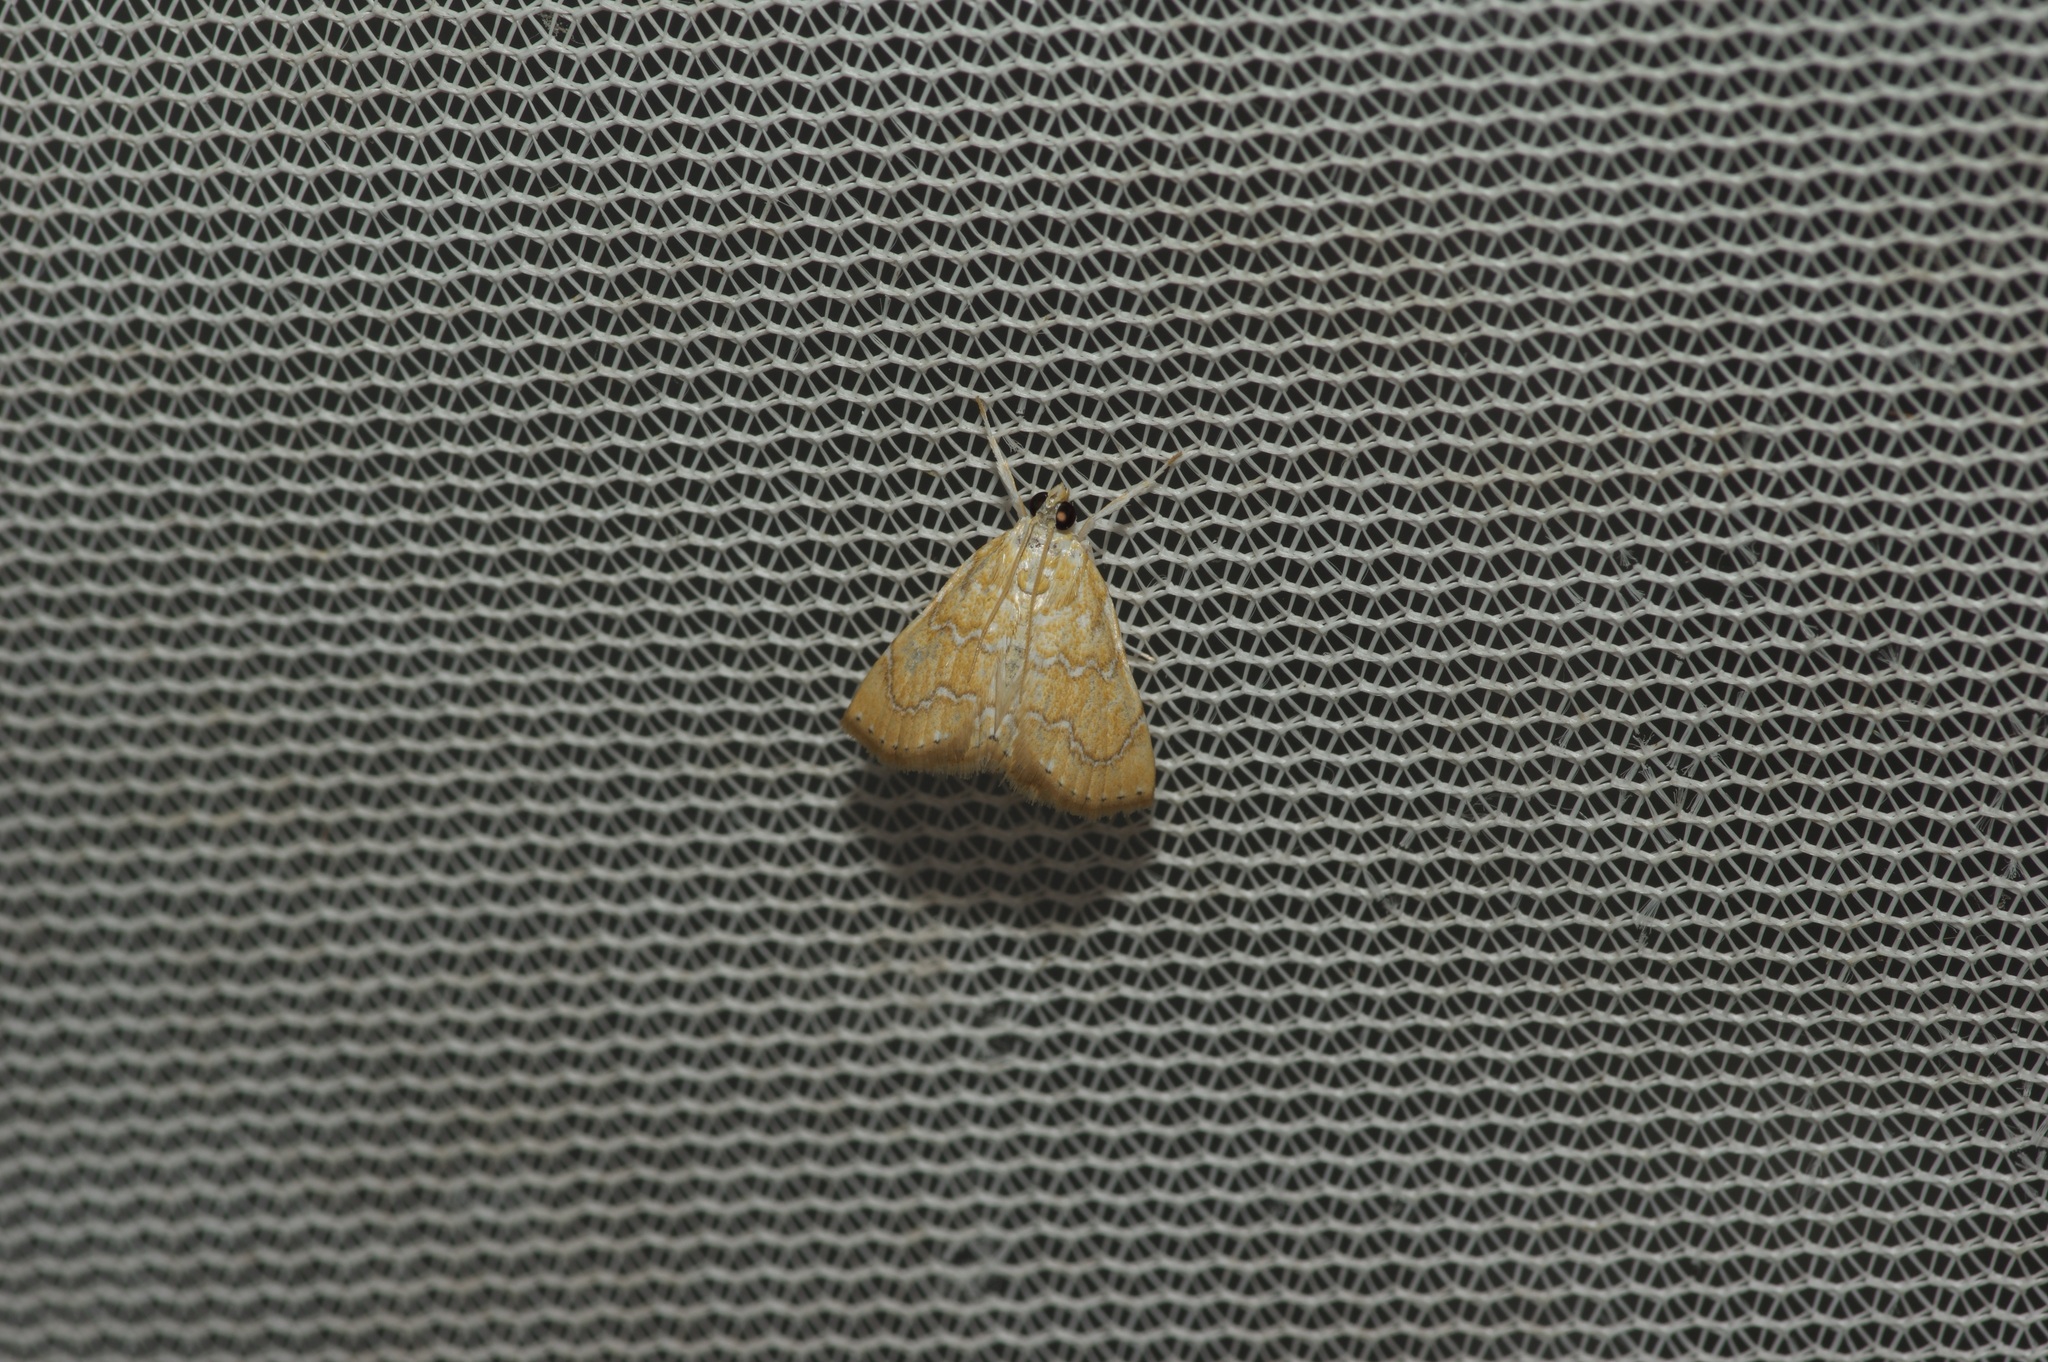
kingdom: Animalia
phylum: Arthropoda
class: Insecta
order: Lepidoptera
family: Crambidae
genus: Glaphyria
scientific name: Glaphyria sesquistrialis
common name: White-roped glaphyria
